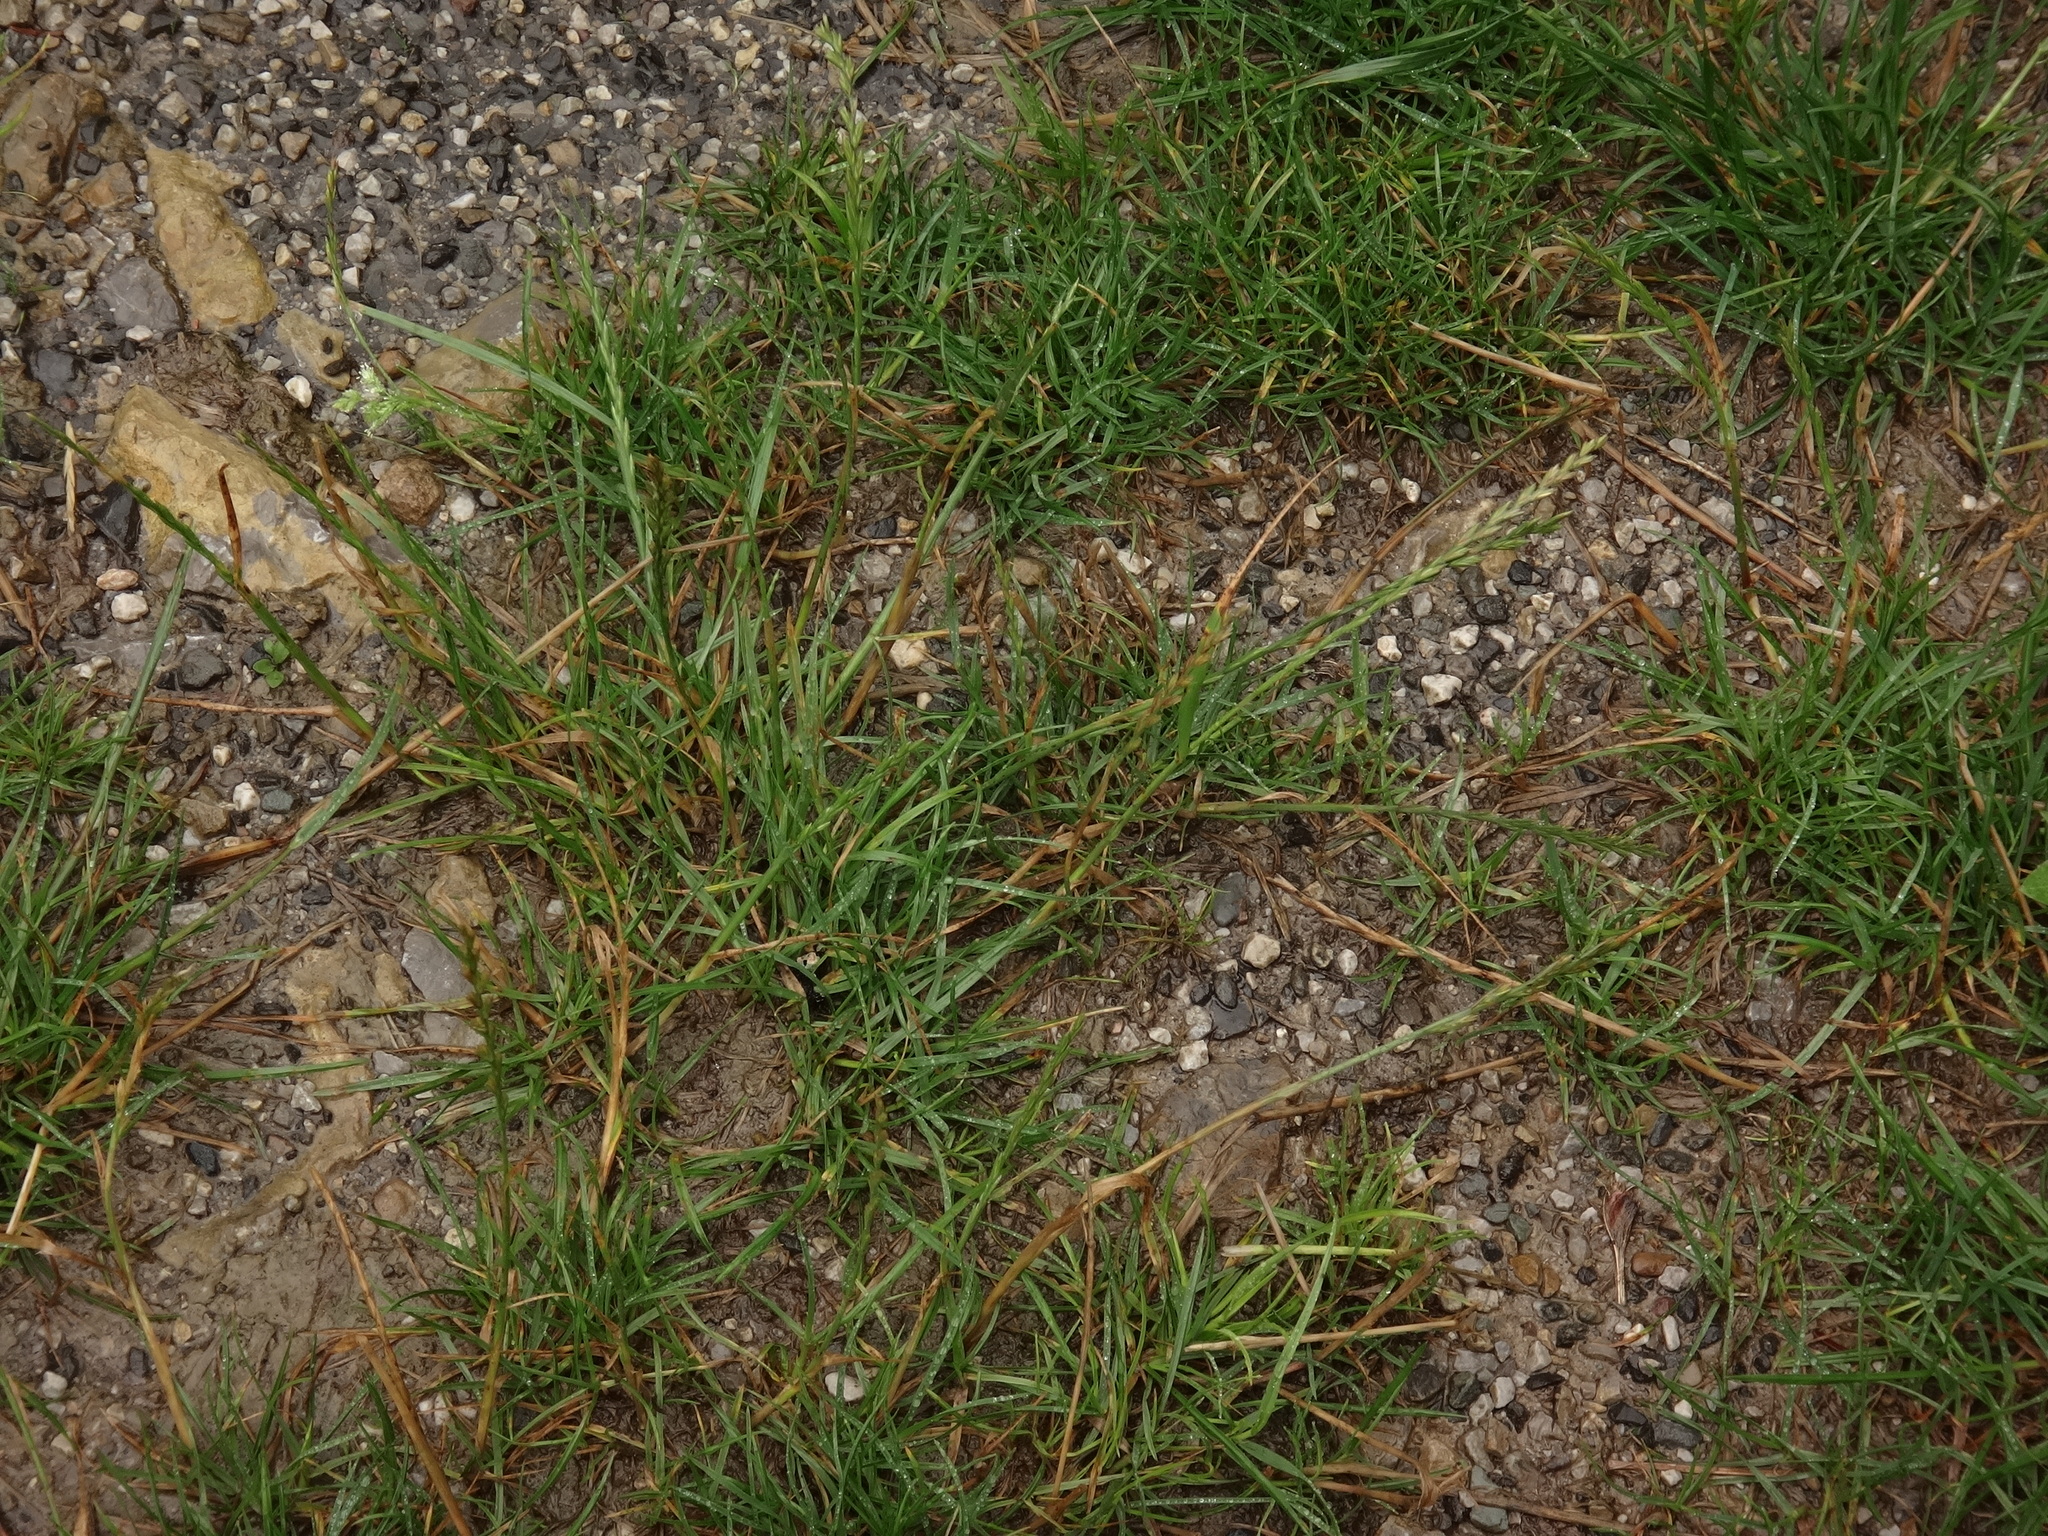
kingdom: Plantae
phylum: Tracheophyta
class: Liliopsida
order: Poales
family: Poaceae
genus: Lolium
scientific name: Lolium perenne
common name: Perennial ryegrass
